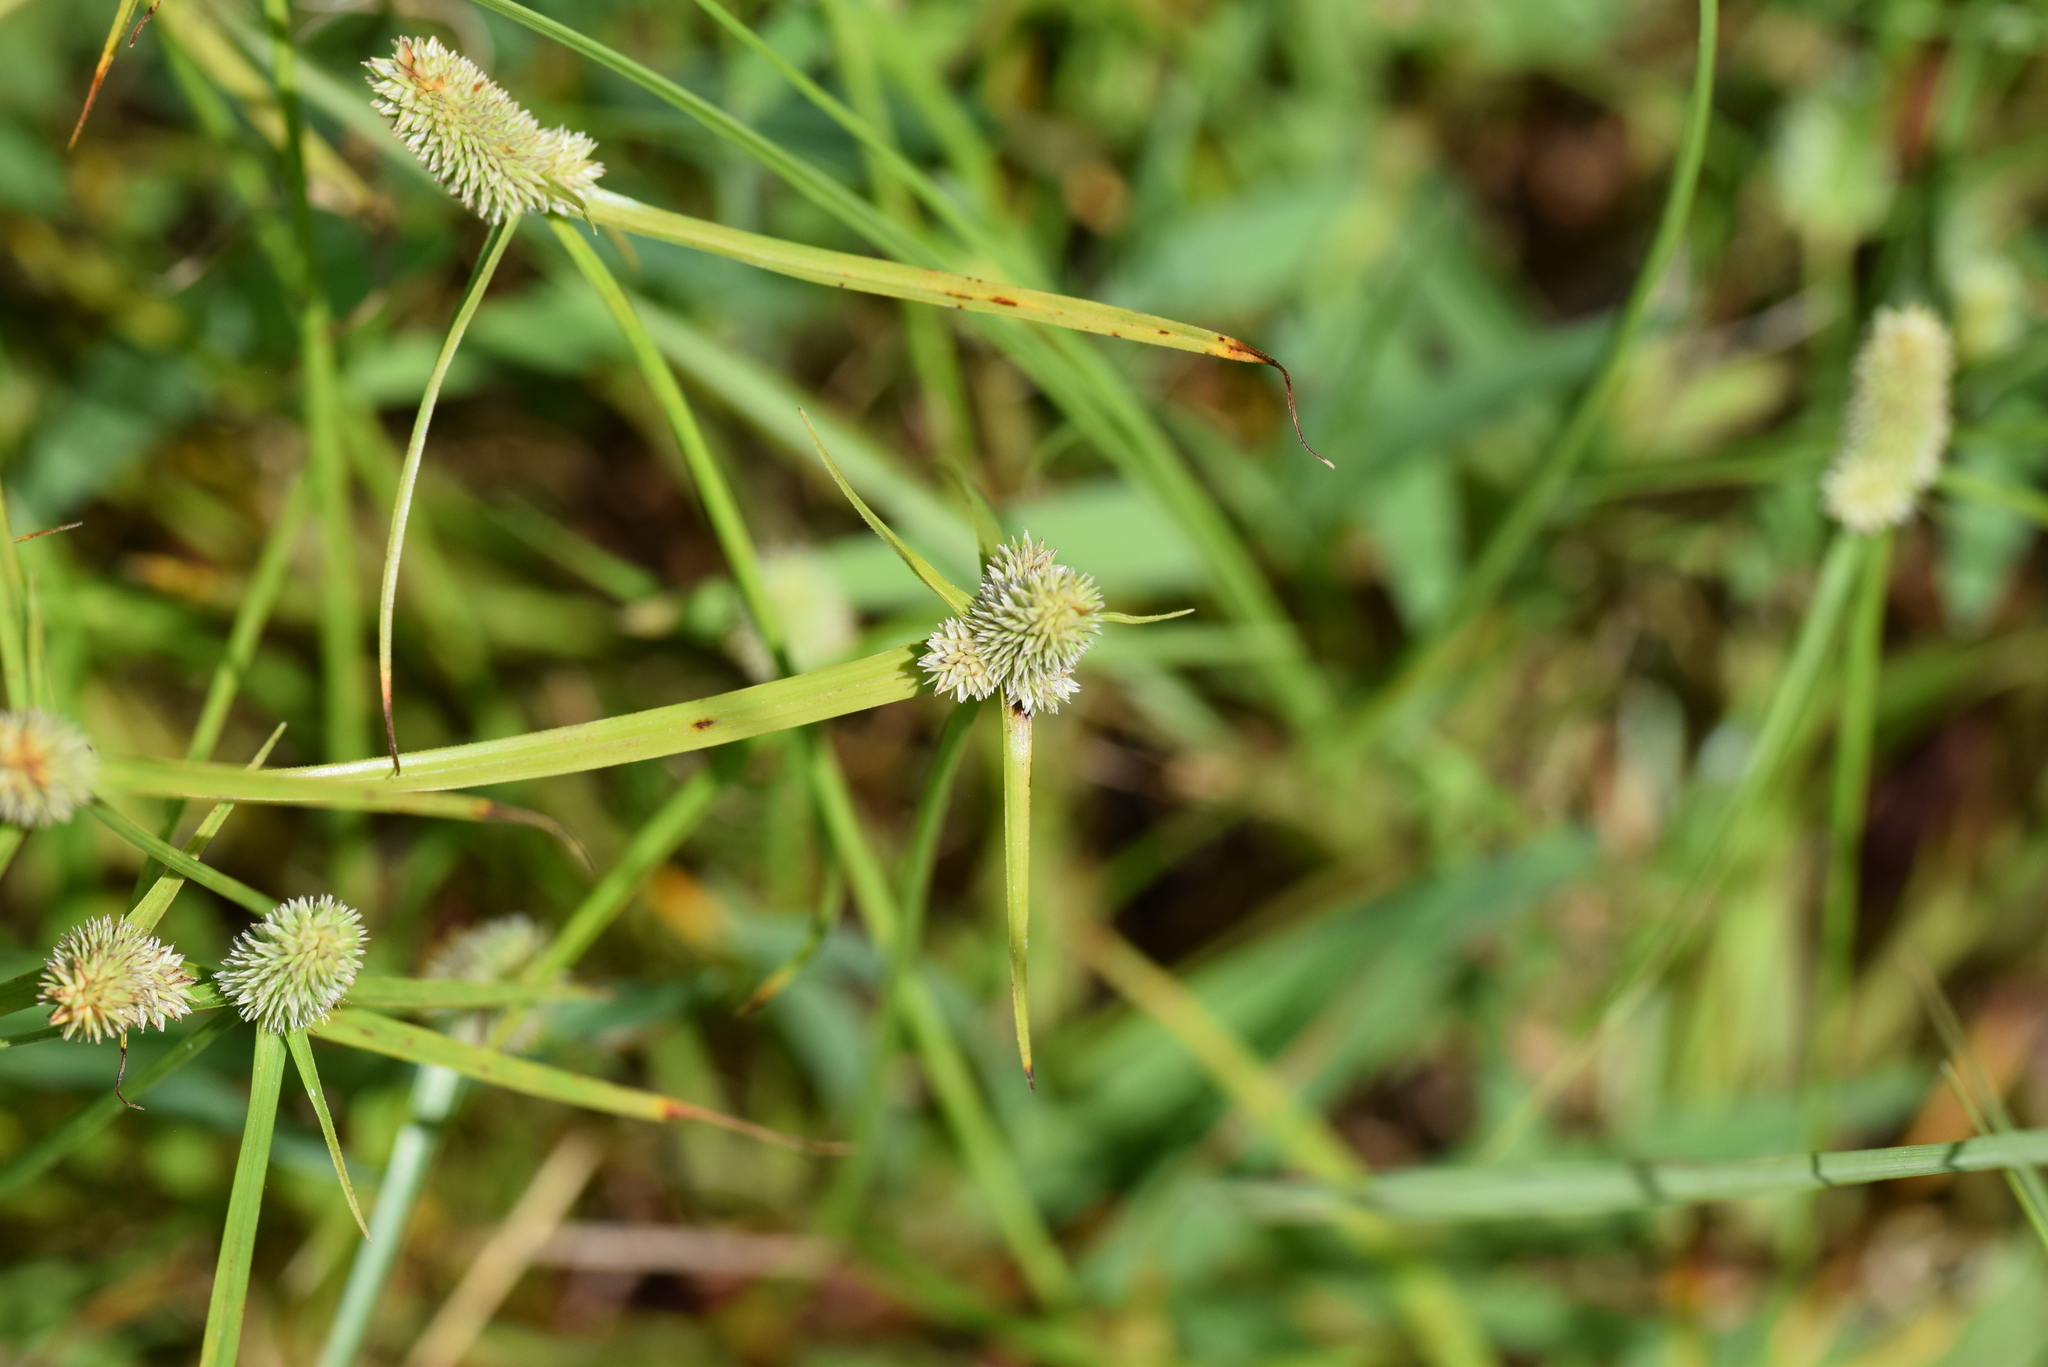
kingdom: Plantae
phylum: Tracheophyta
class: Liliopsida
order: Poales
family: Cyperaceae
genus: Cyperus
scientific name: Cyperus sesquiflorus
